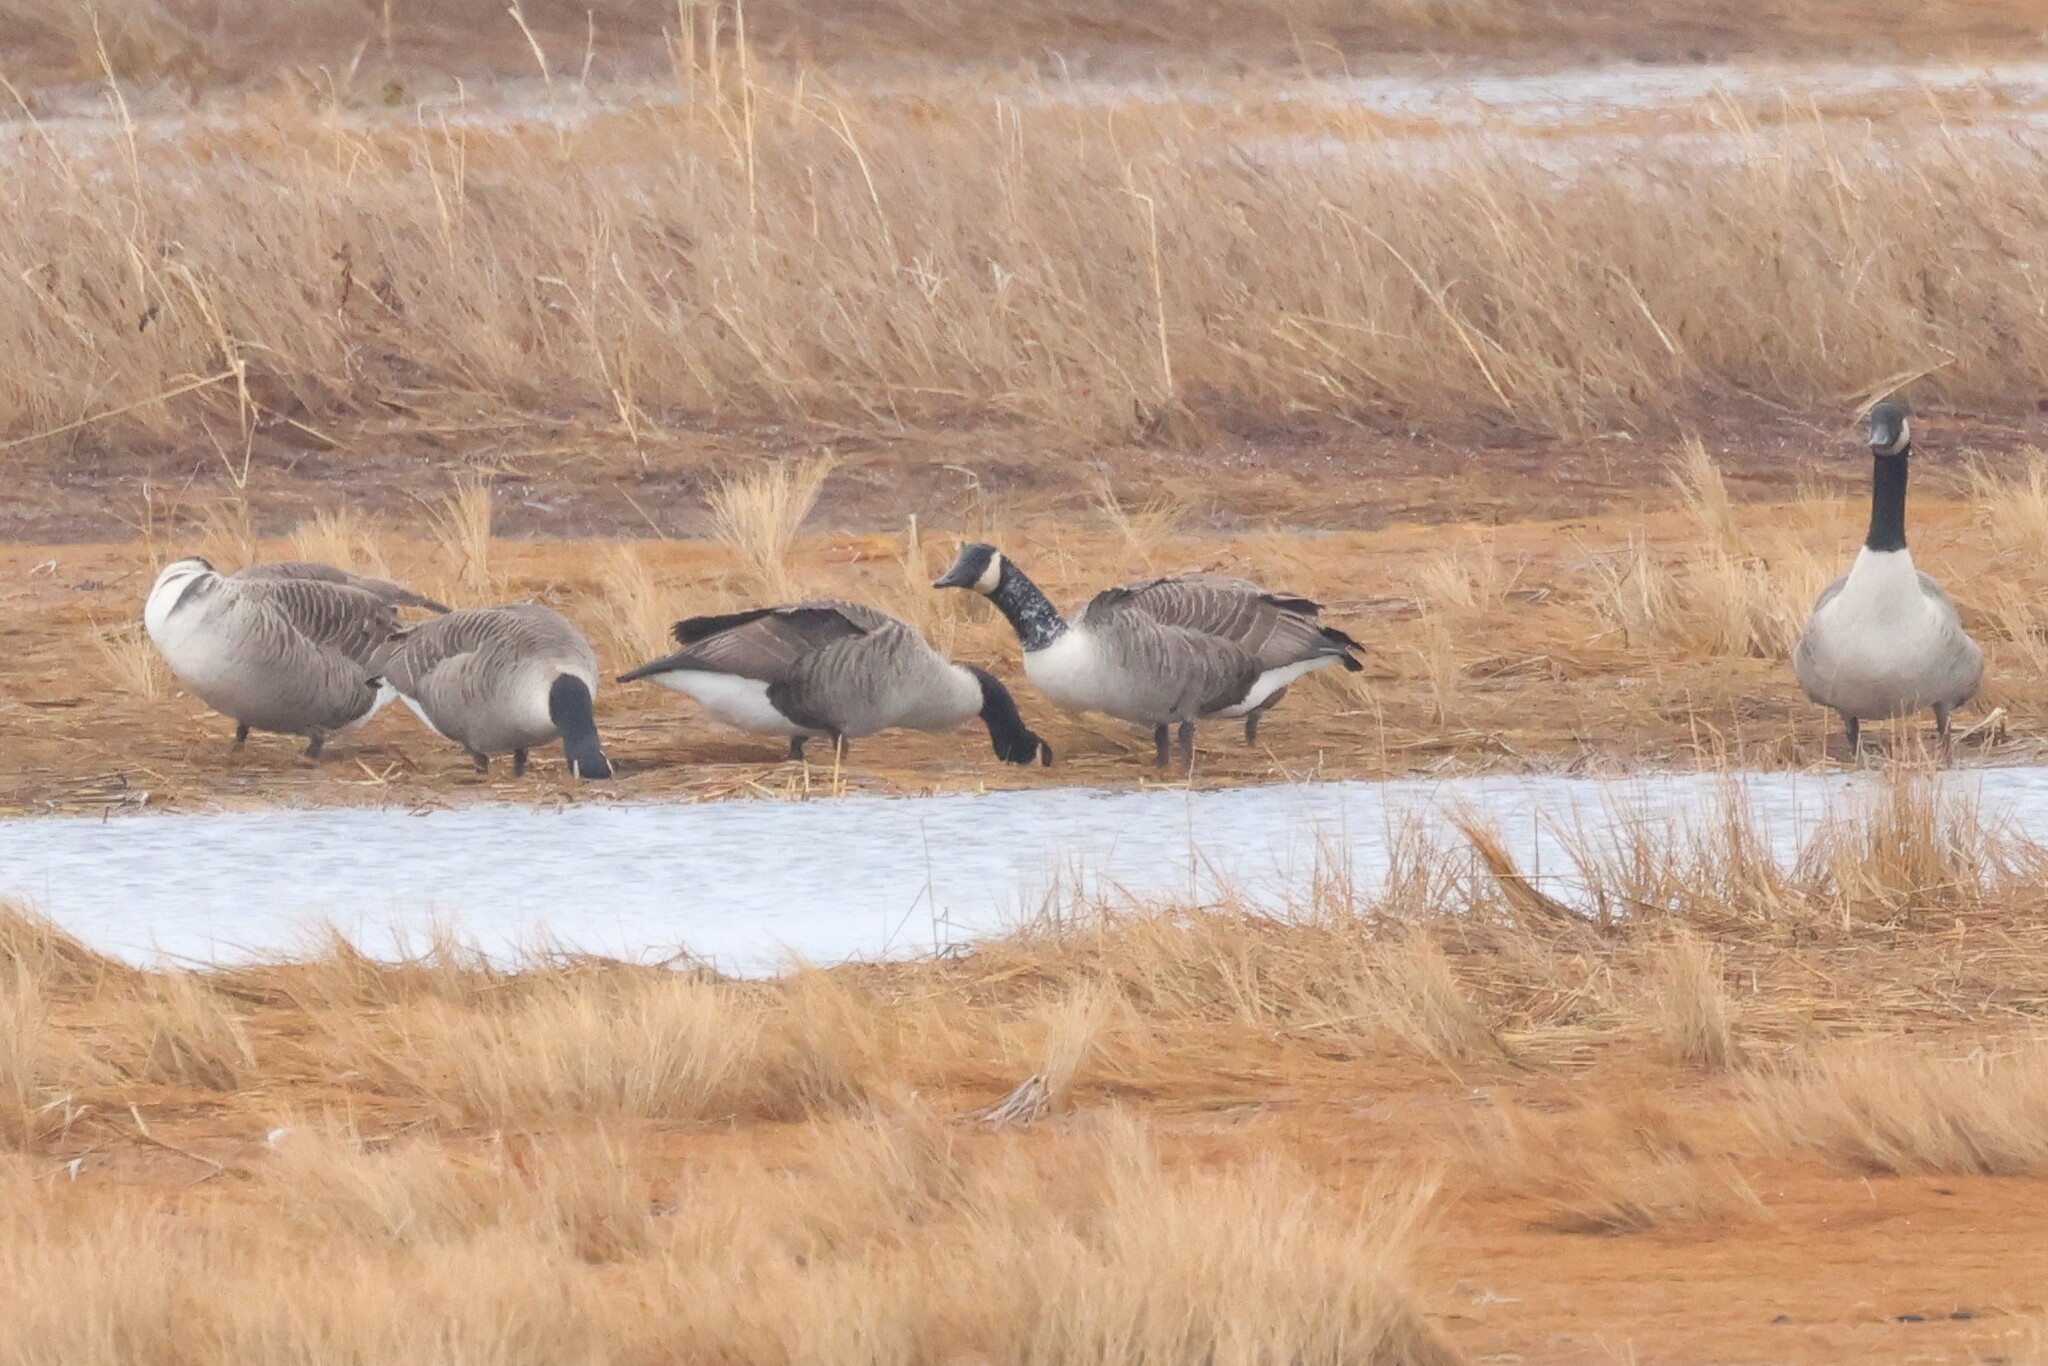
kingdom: Animalia
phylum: Chordata
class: Aves
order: Anseriformes
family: Anatidae
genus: Branta
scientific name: Branta canadensis
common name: Canada goose
